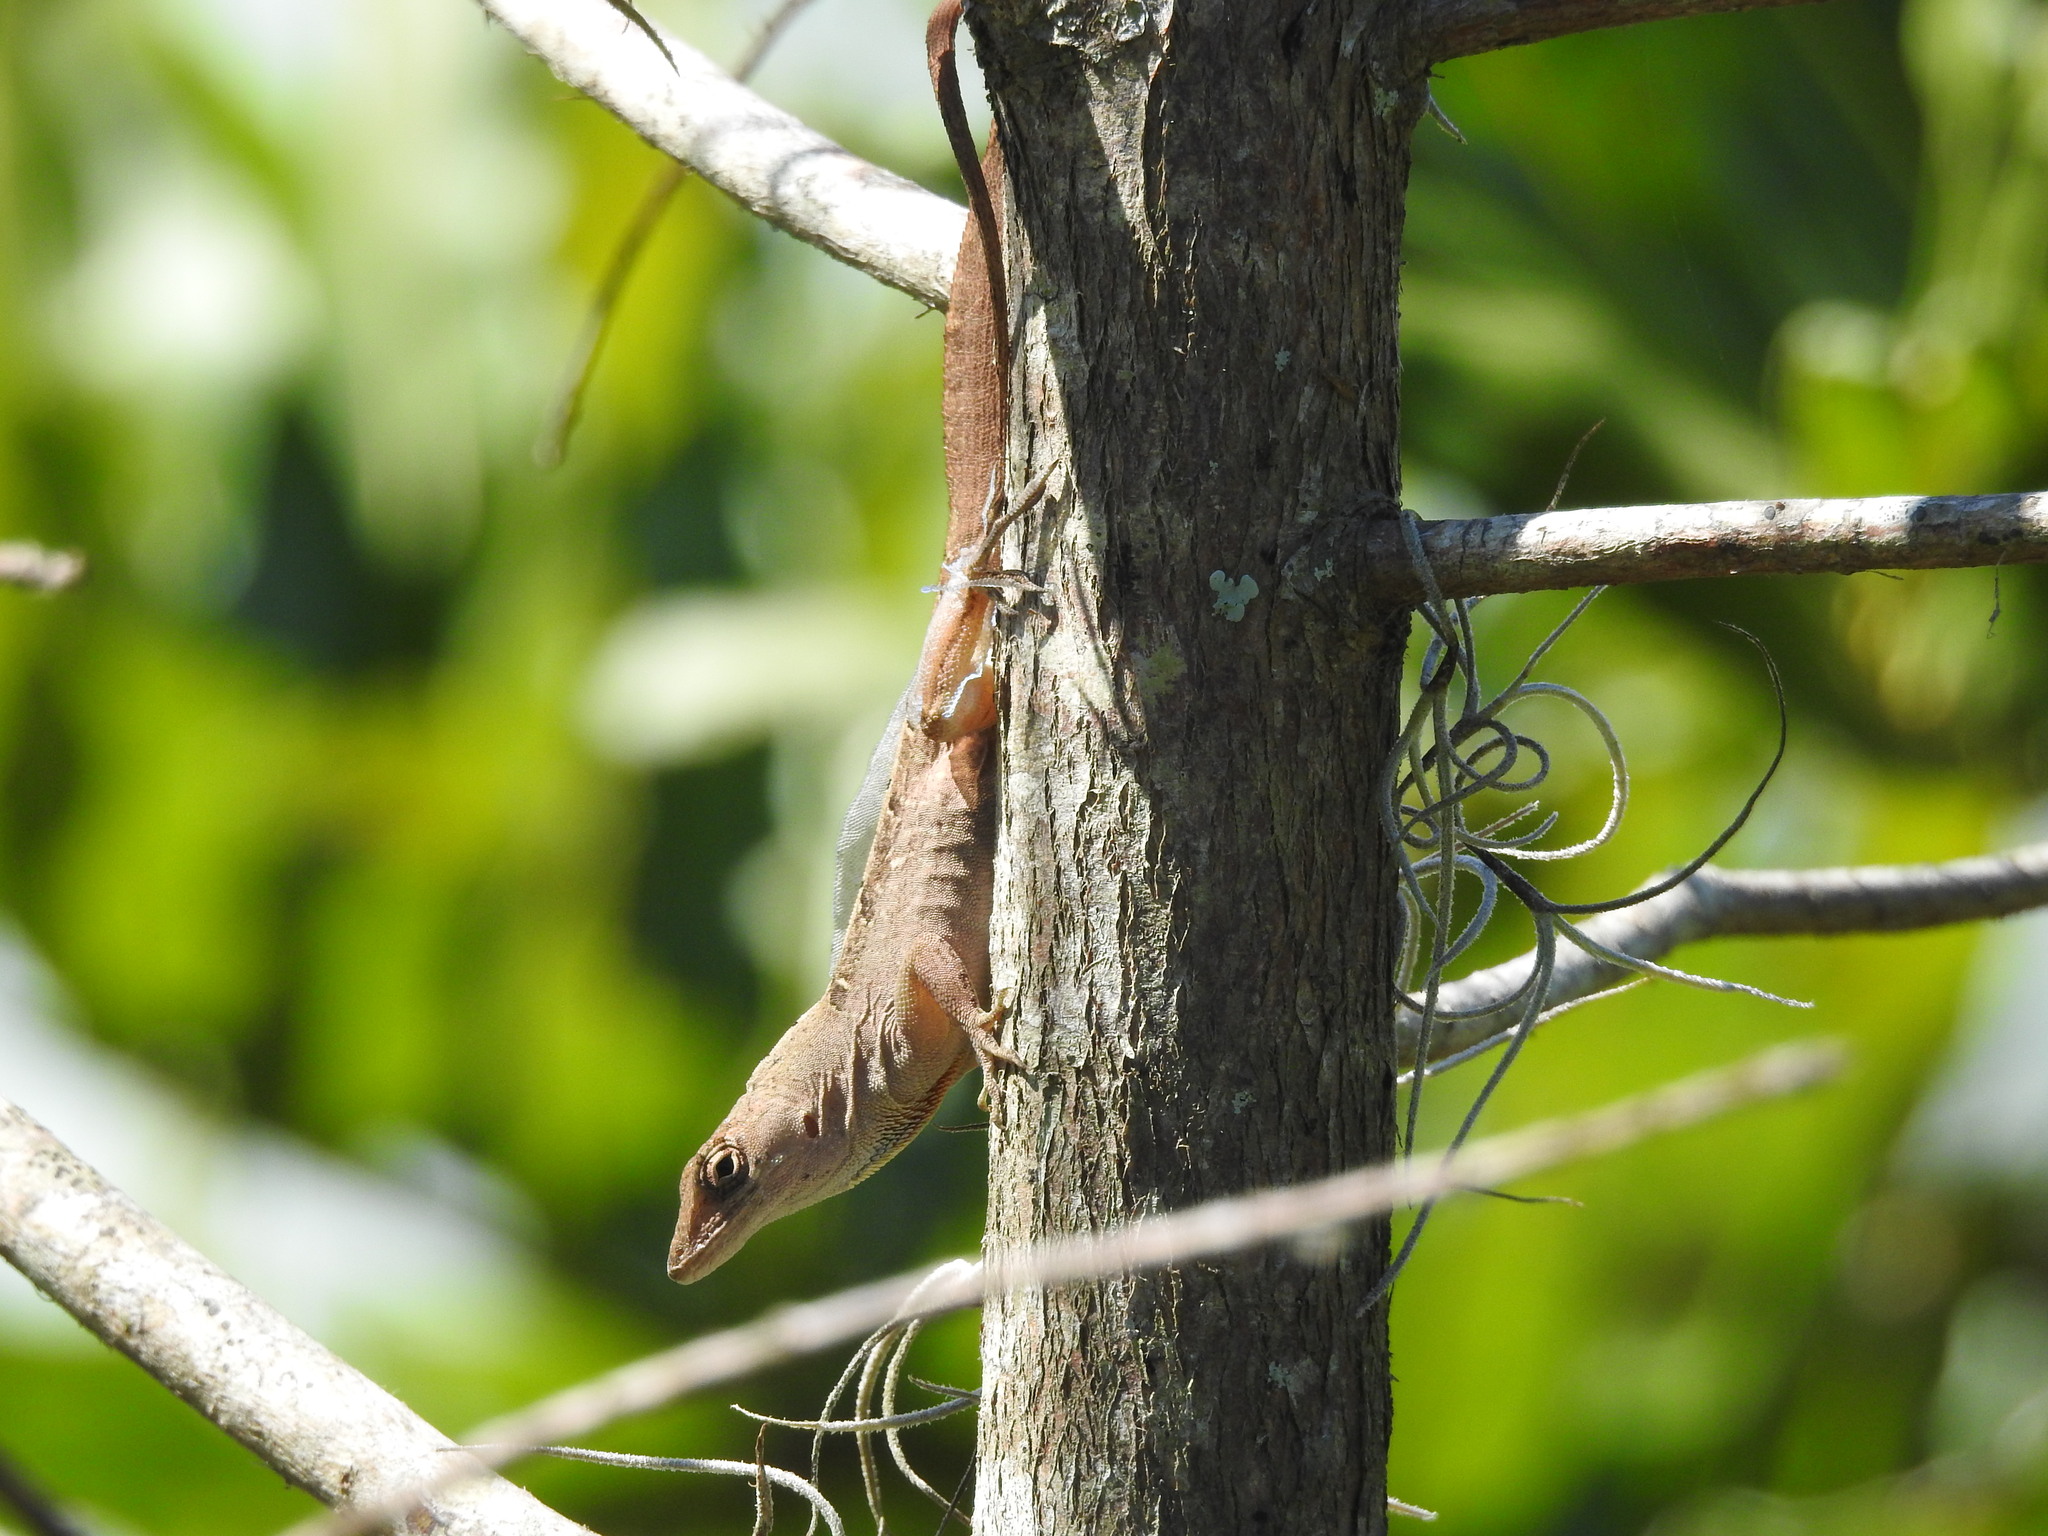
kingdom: Animalia
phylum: Chordata
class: Squamata
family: Dactyloidae
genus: Anolis
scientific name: Anolis sagrei
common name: Brown anole
